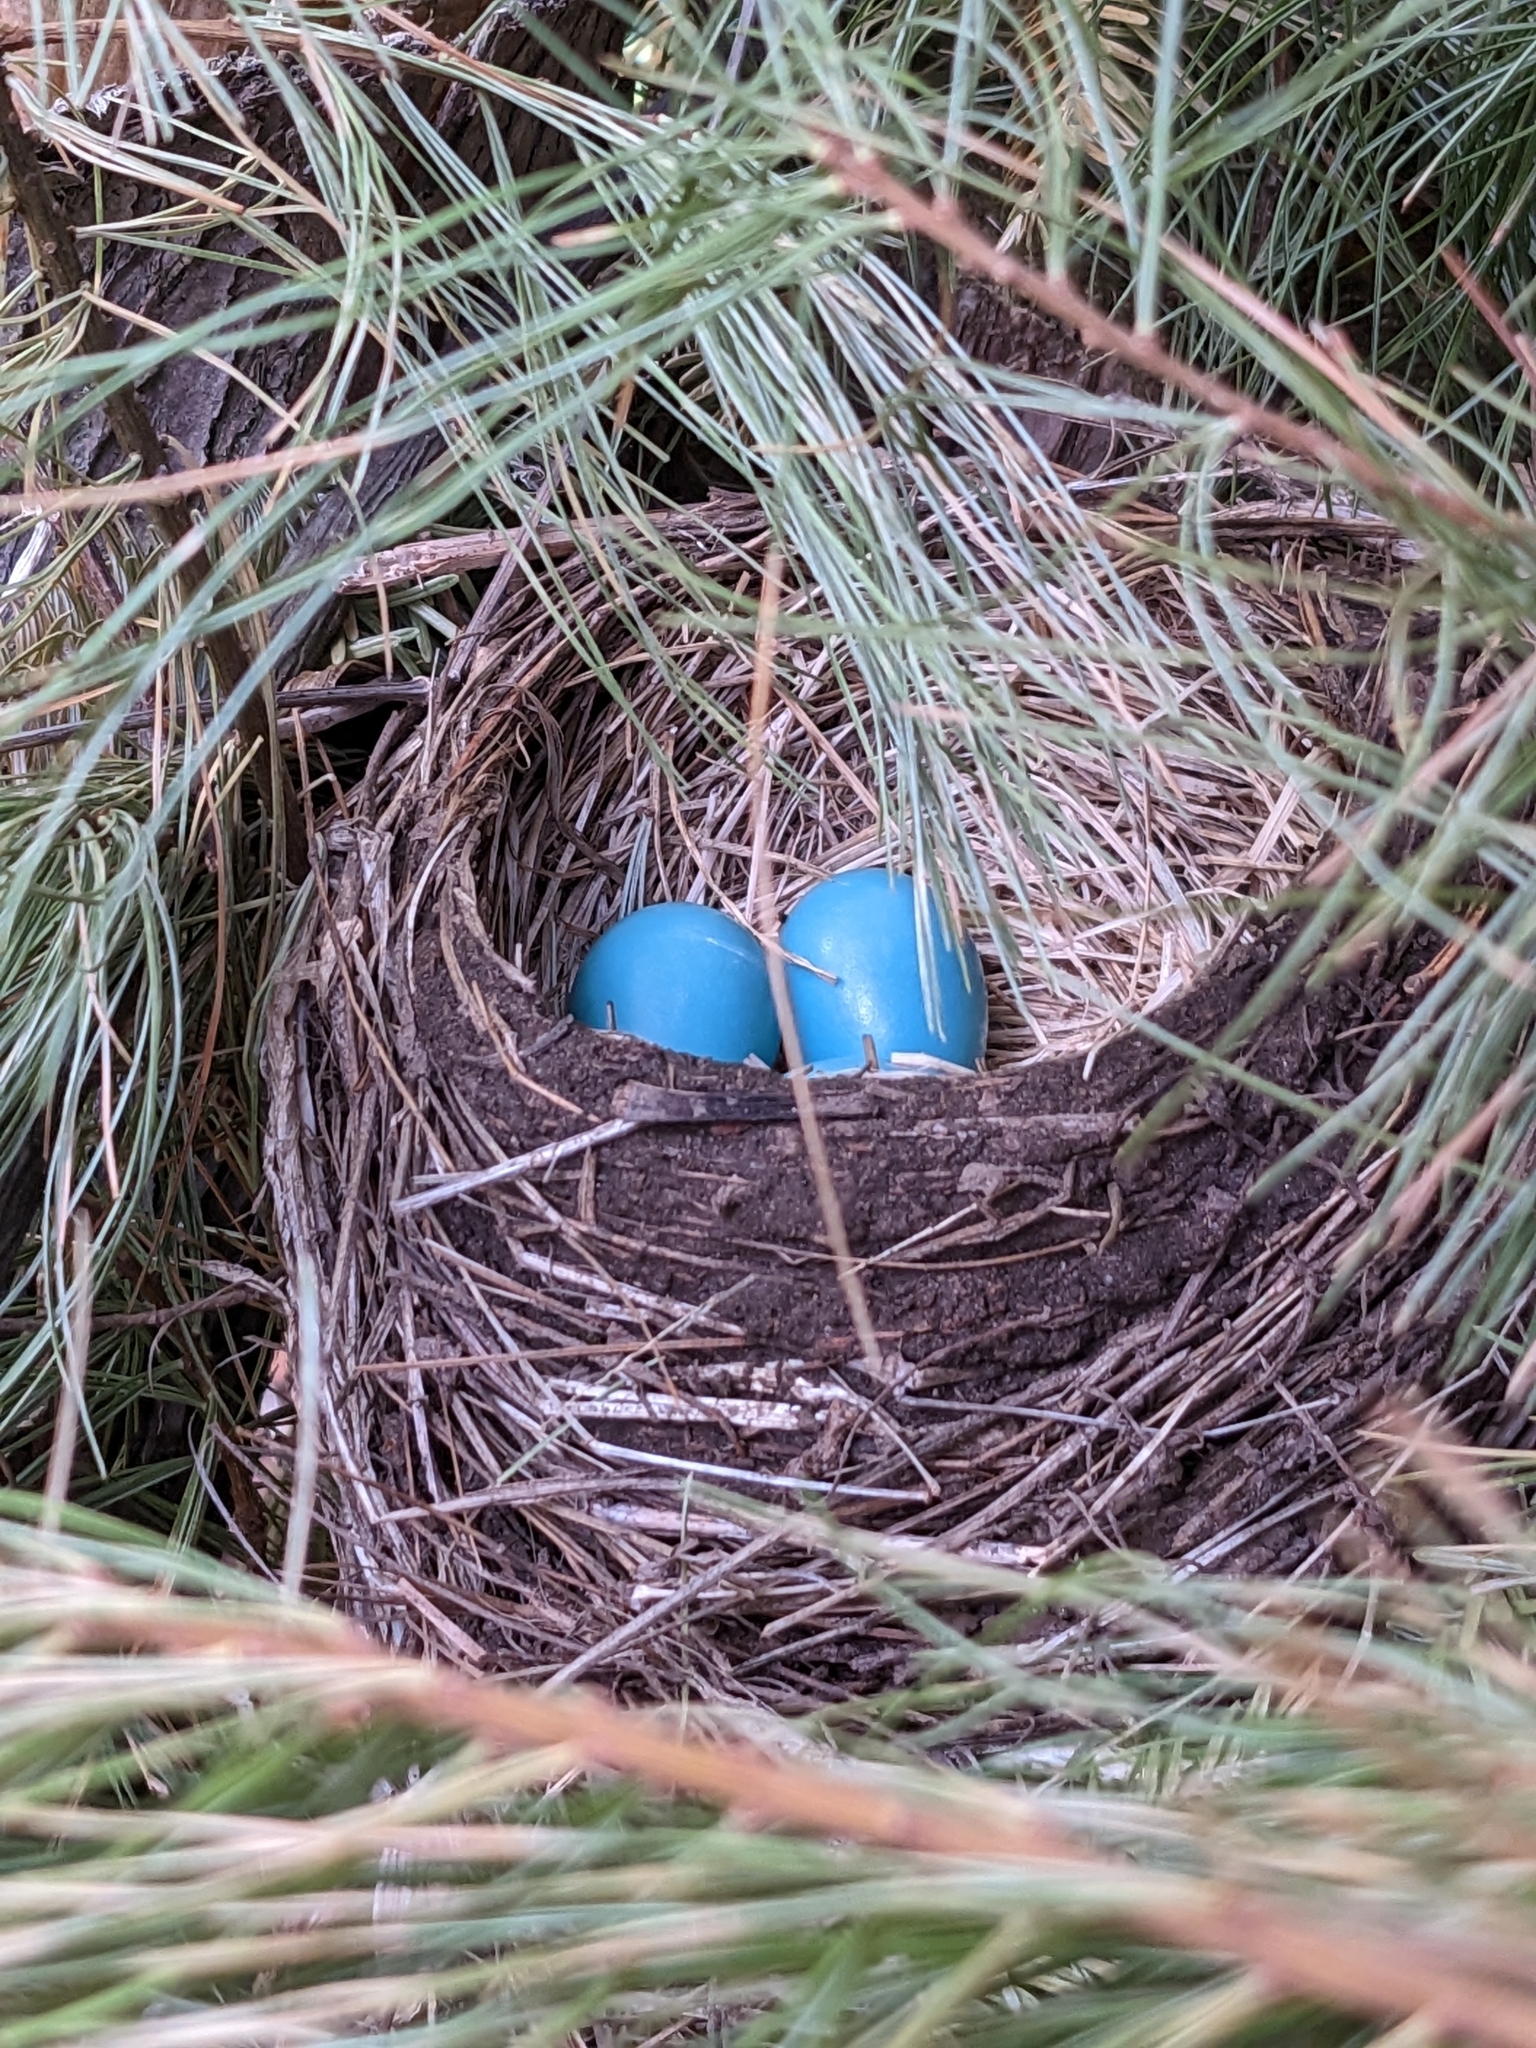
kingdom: Animalia
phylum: Chordata
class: Aves
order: Passeriformes
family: Turdidae
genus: Turdus
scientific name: Turdus migratorius
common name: American robin
